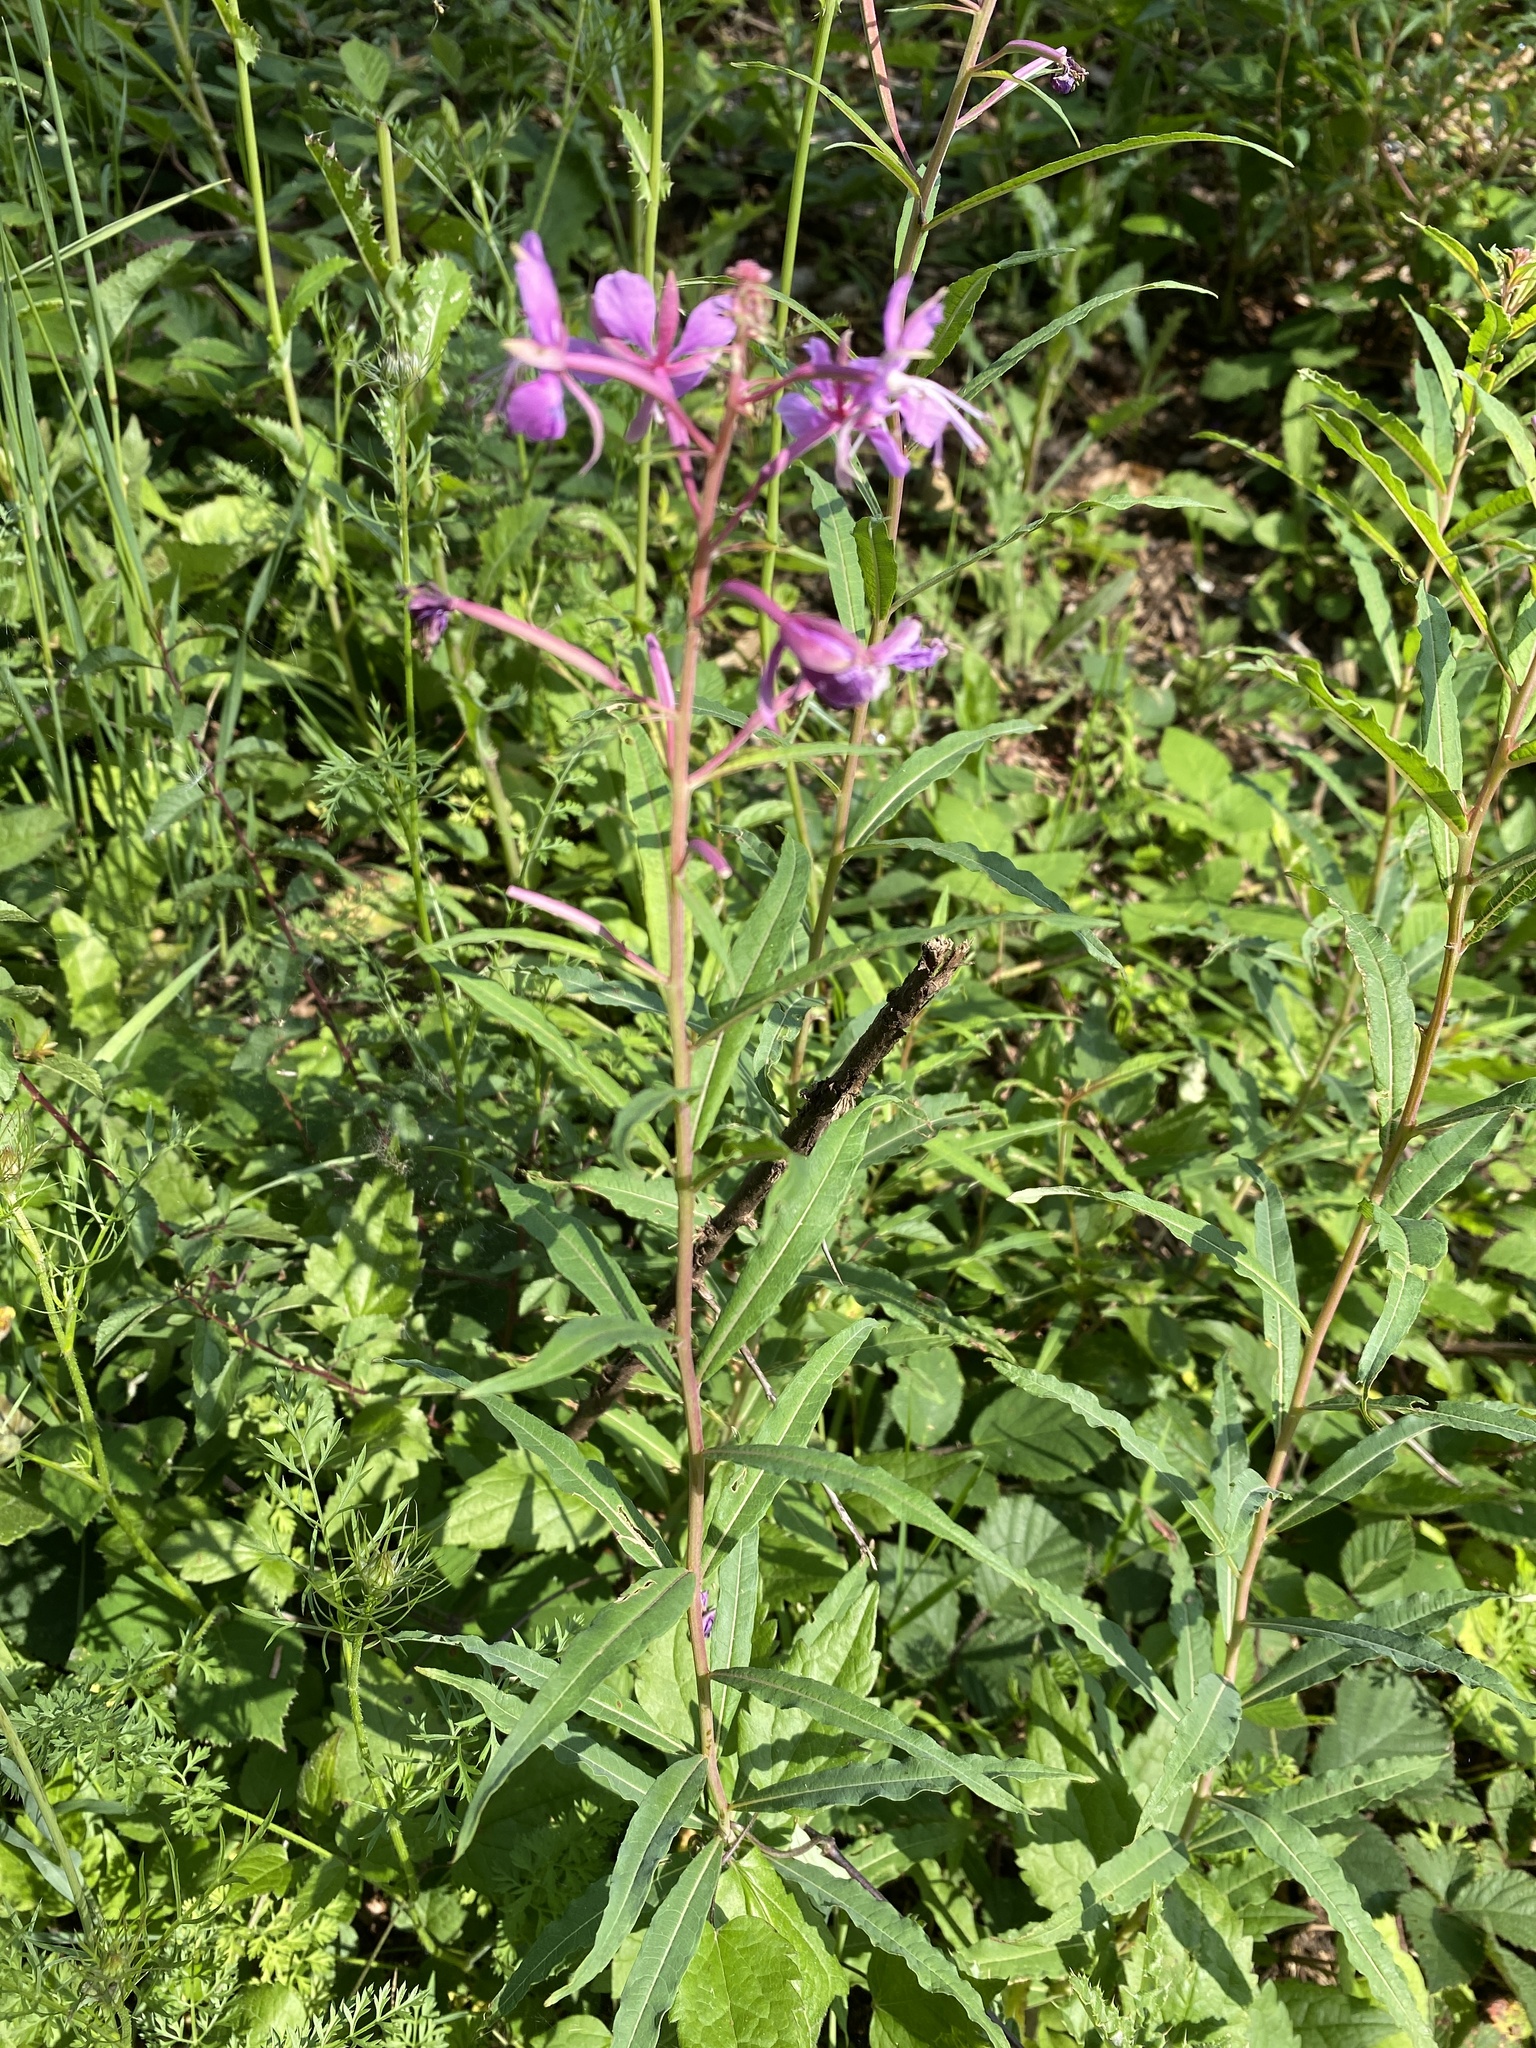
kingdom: Plantae
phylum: Tracheophyta
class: Magnoliopsida
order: Myrtales
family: Onagraceae
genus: Chamaenerion
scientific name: Chamaenerion angustifolium
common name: Fireweed
